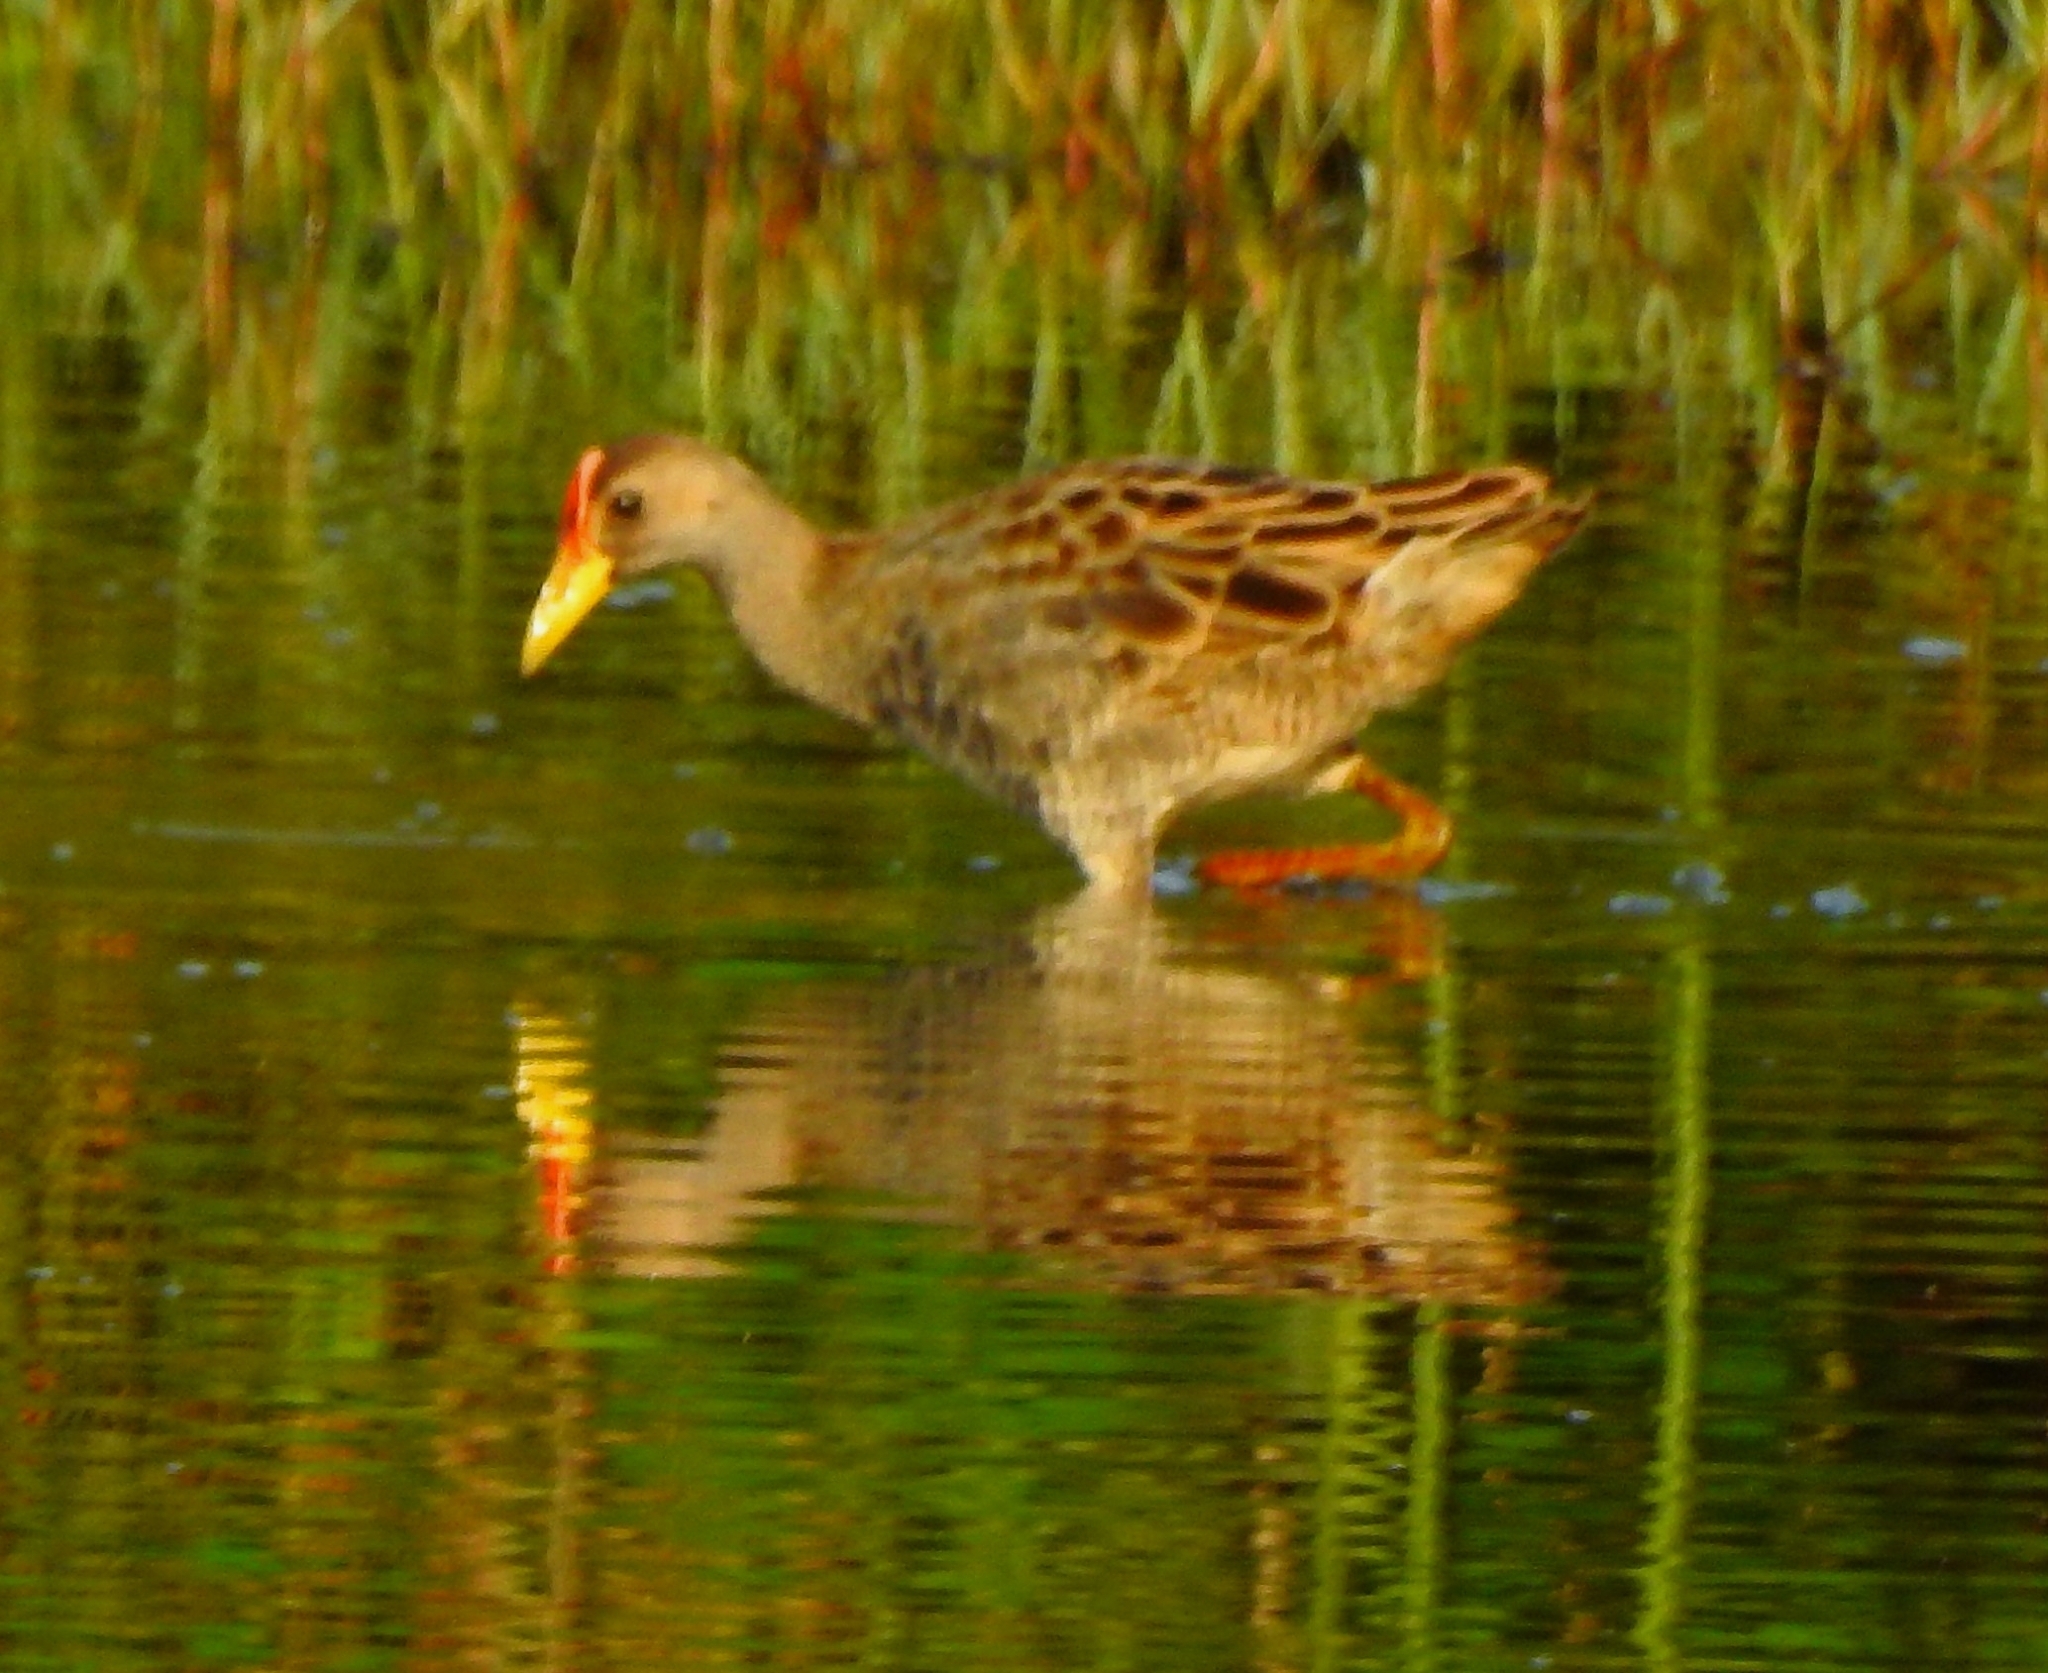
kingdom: Animalia
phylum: Chordata
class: Aves
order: Gruiformes
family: Rallidae
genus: Gallicrex
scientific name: Gallicrex cinerea
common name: Watercock
